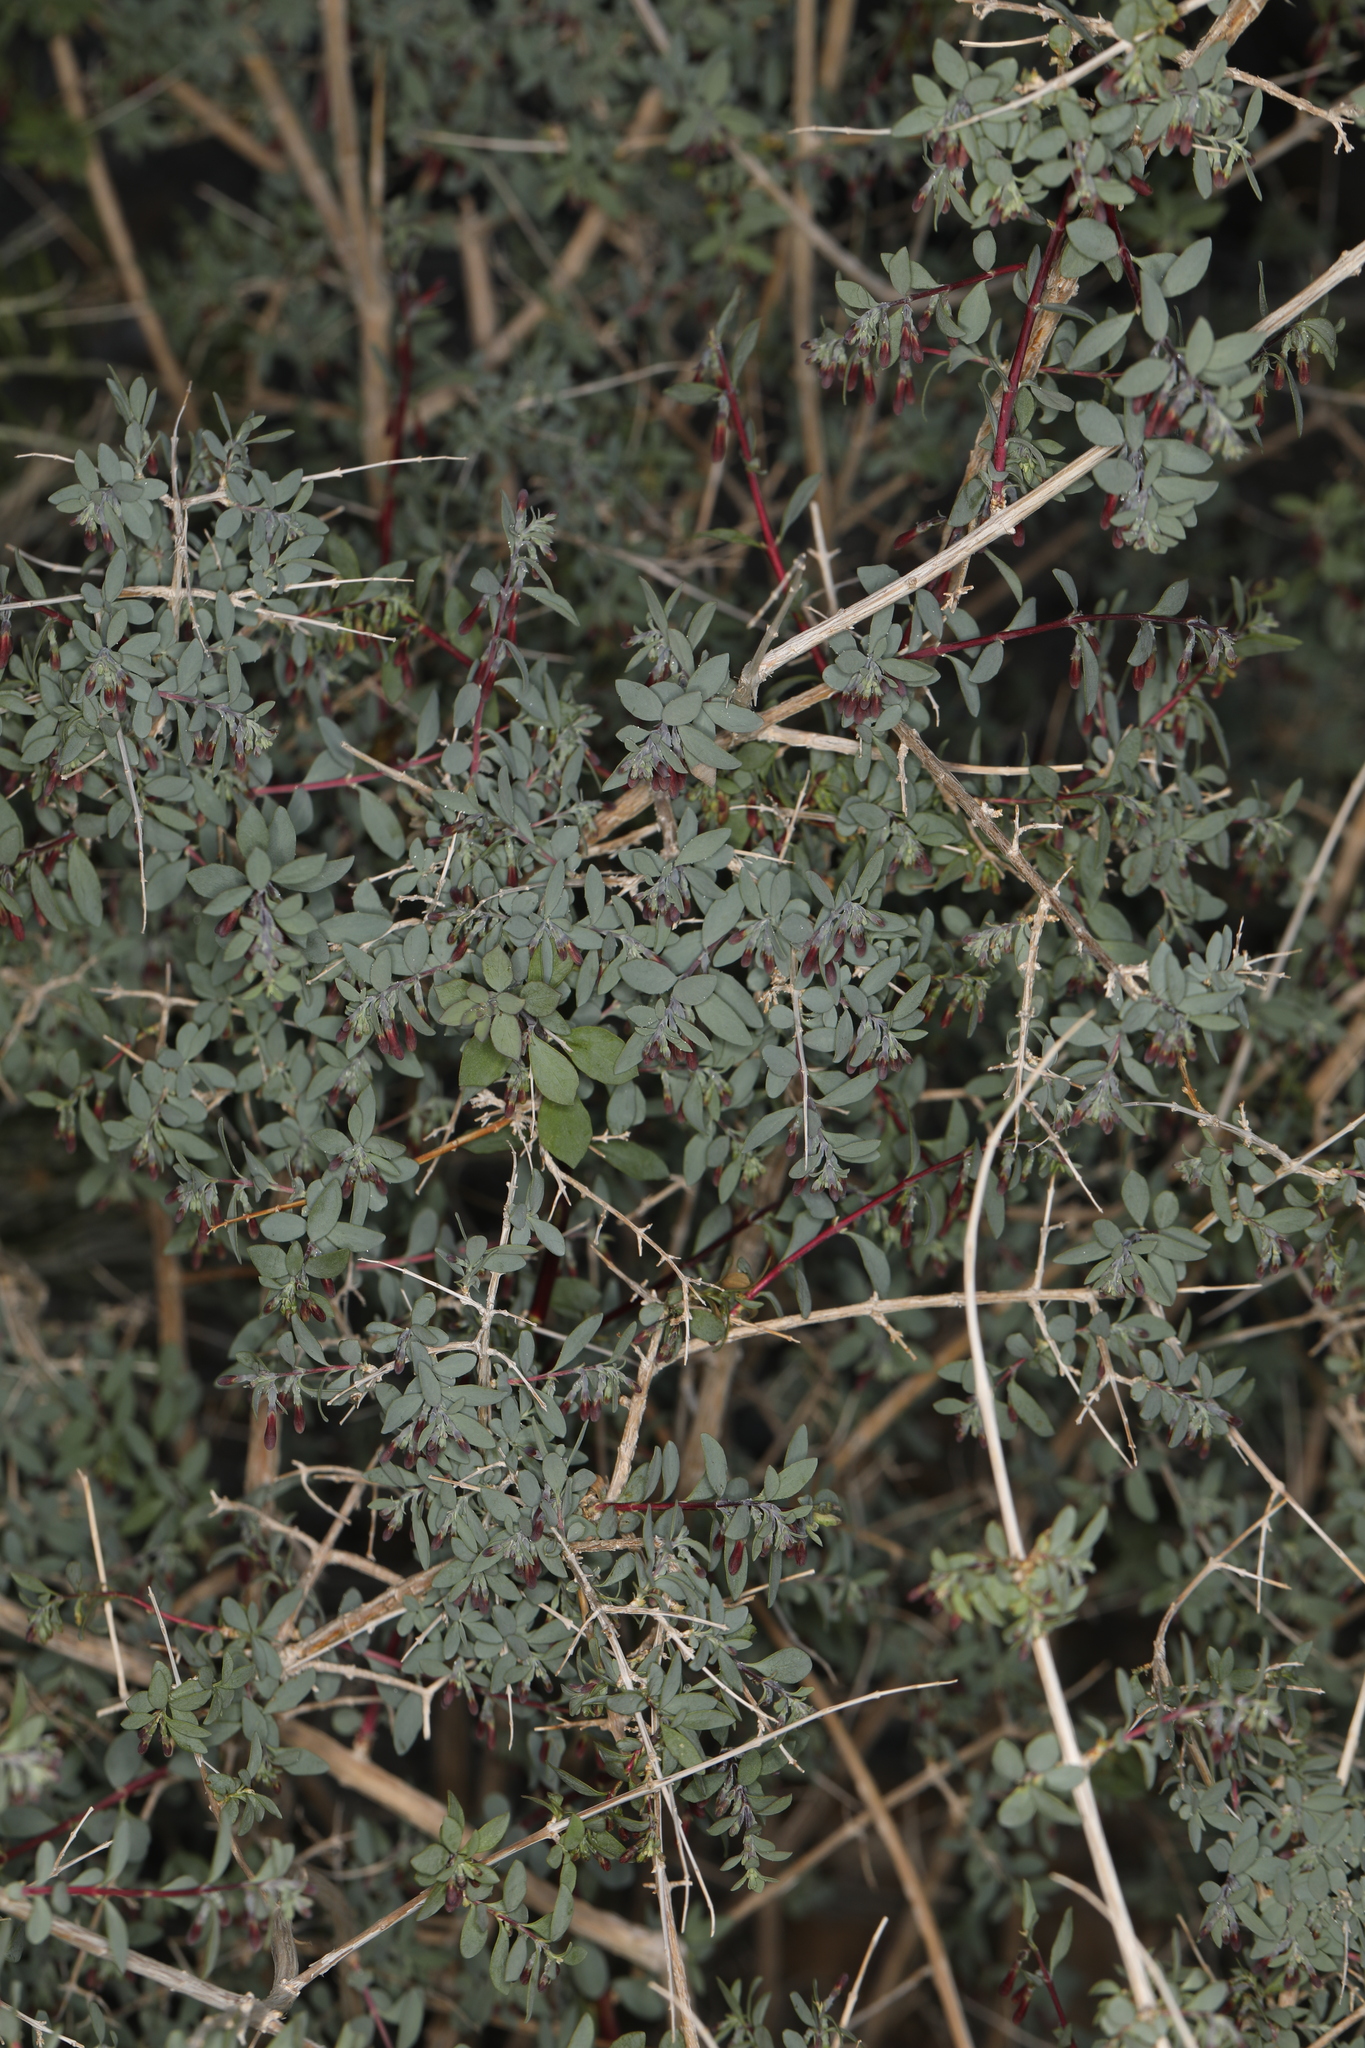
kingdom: Plantae
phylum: Tracheophyta
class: Magnoliopsida
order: Dipsacales
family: Caprifoliaceae
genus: Symphoricarpos
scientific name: Symphoricarpos longiflorus
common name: Fragrant snowberry
